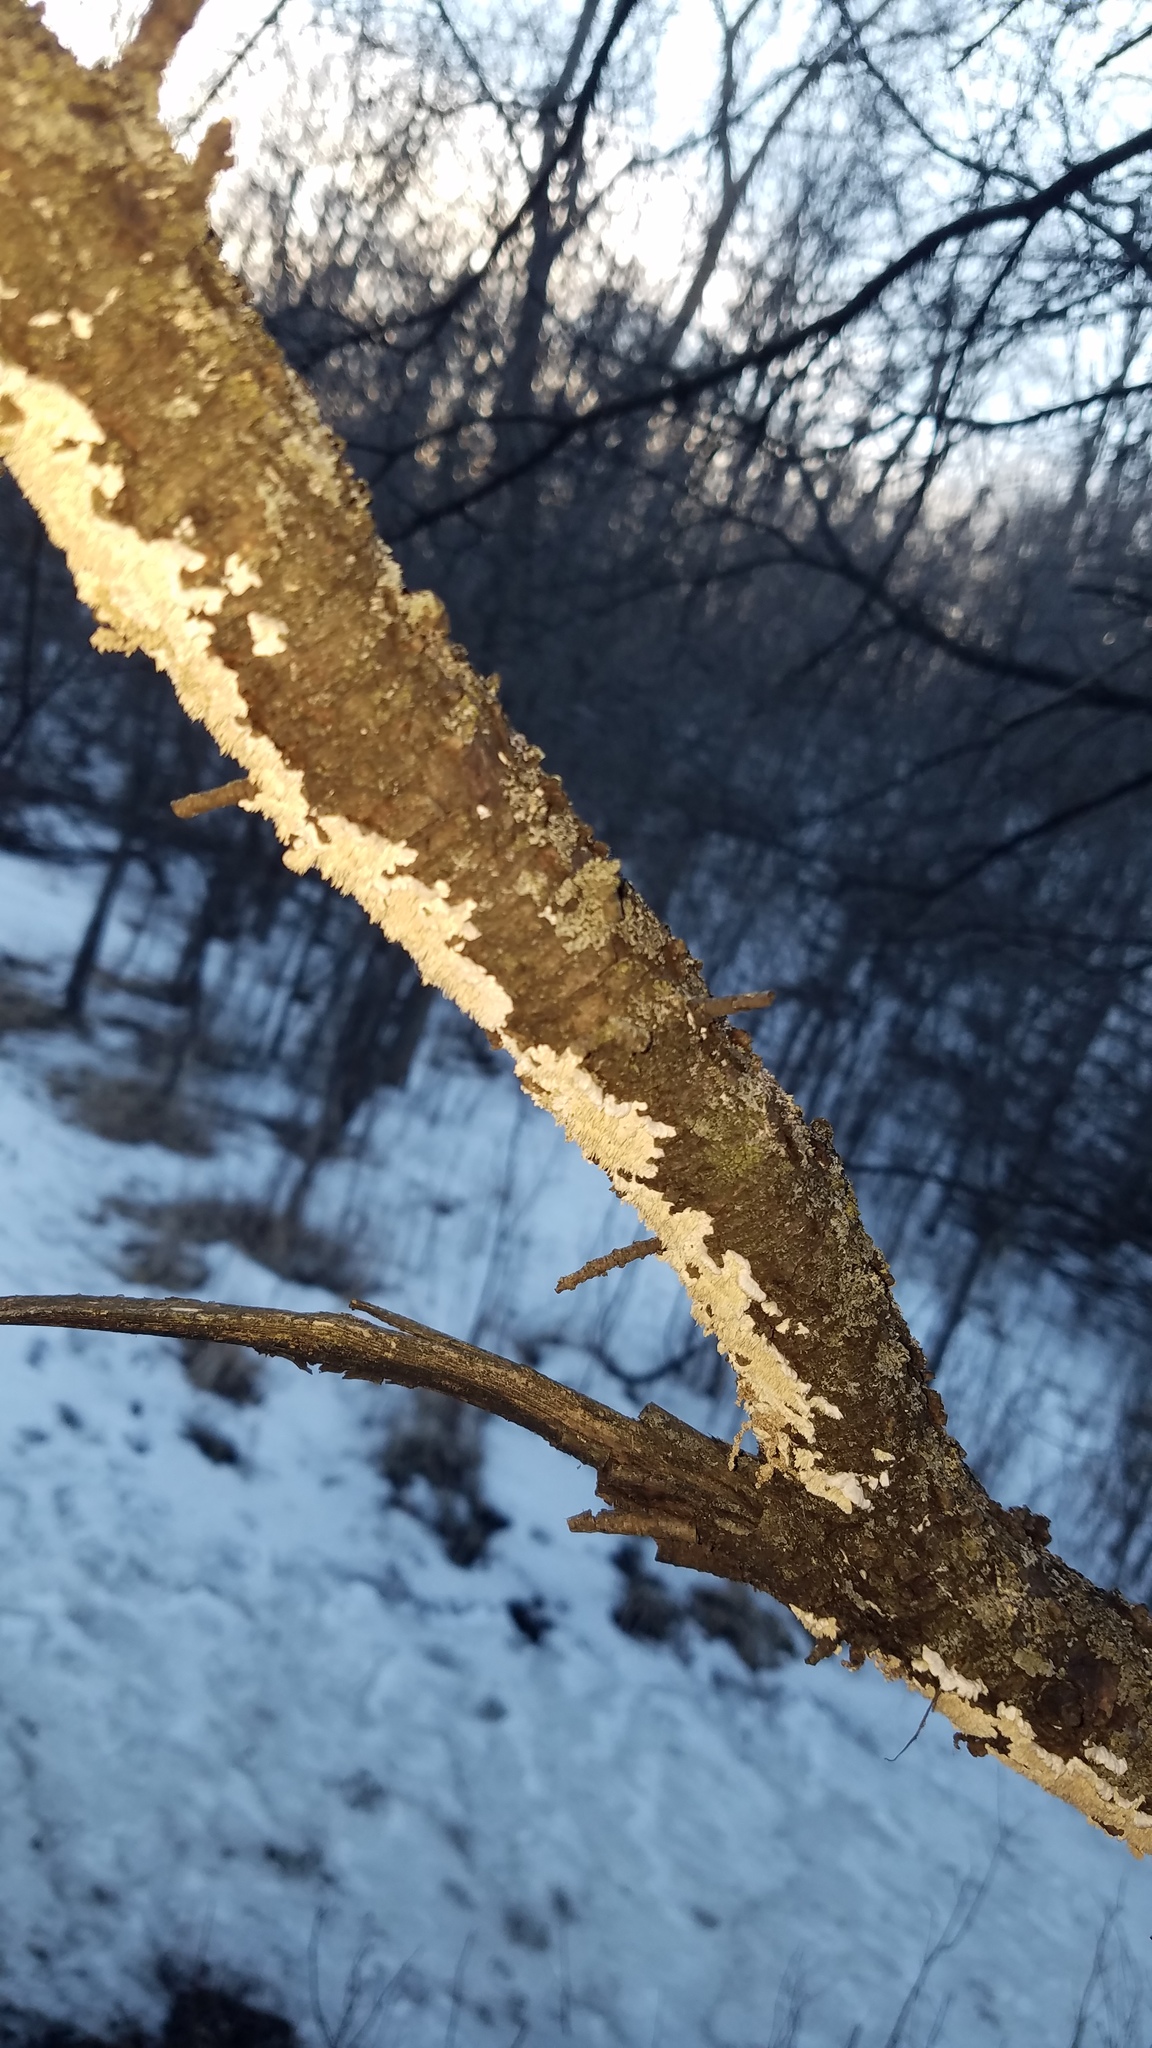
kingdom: Fungi
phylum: Basidiomycota
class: Agaricomycetes
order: Polyporales
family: Irpicaceae
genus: Irpex
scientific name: Irpex lacteus
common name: Milk-white toothed polypore
